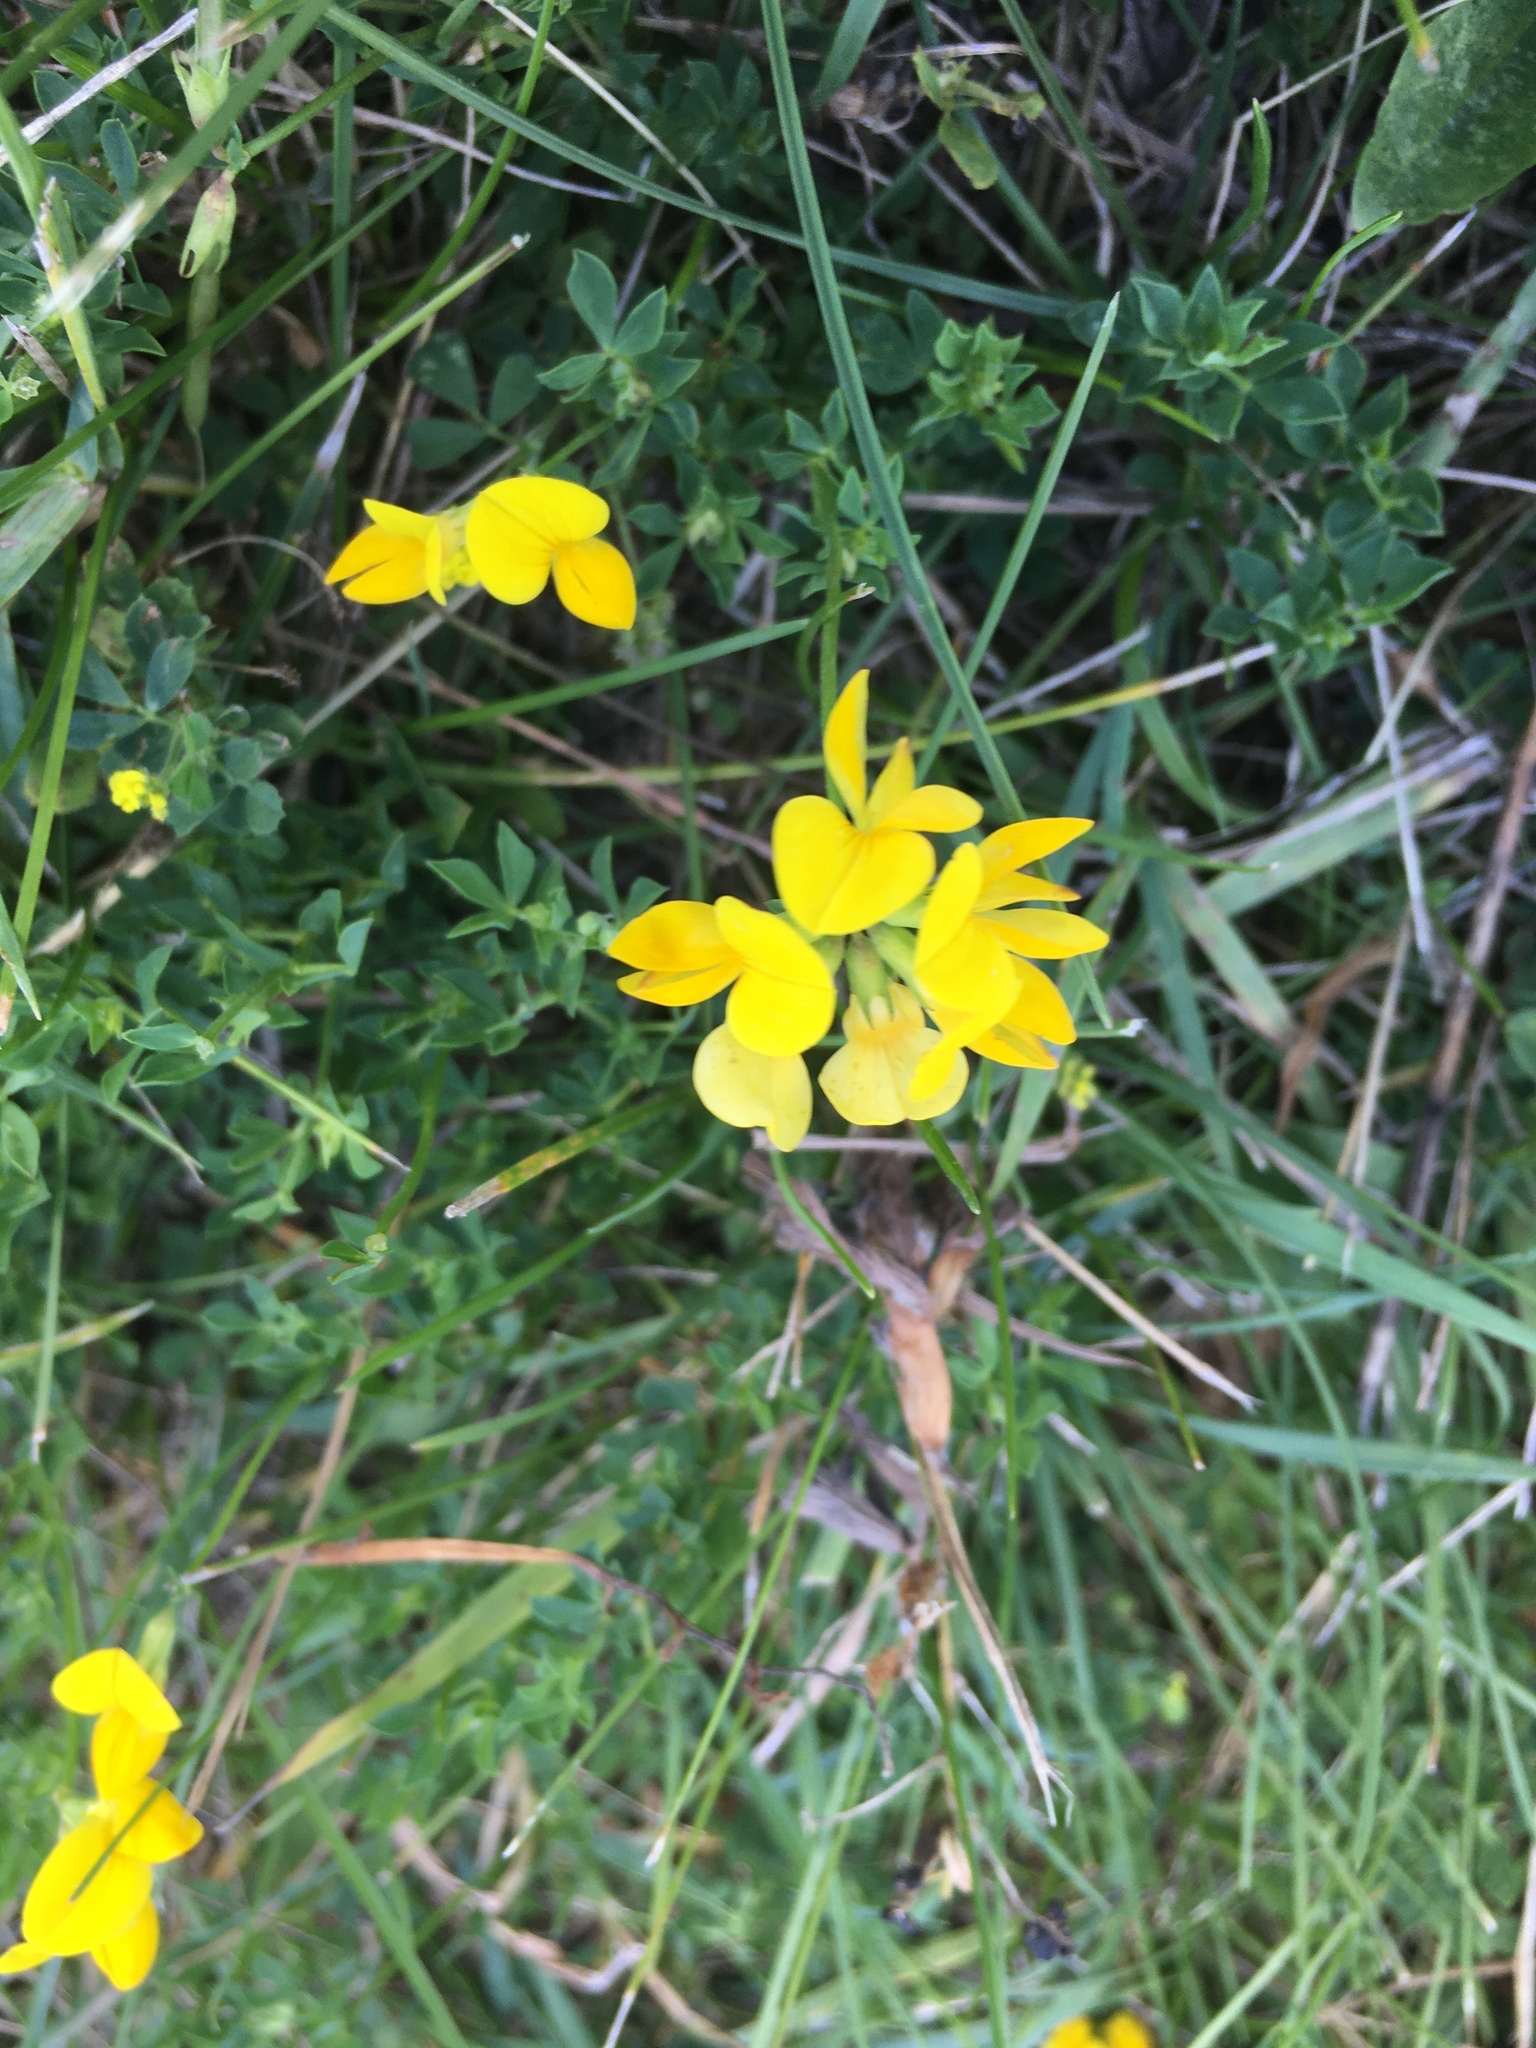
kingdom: Plantae
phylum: Tracheophyta
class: Magnoliopsida
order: Fabales
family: Fabaceae
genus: Lotus
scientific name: Lotus corniculatus
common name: Common bird's-foot-trefoil
